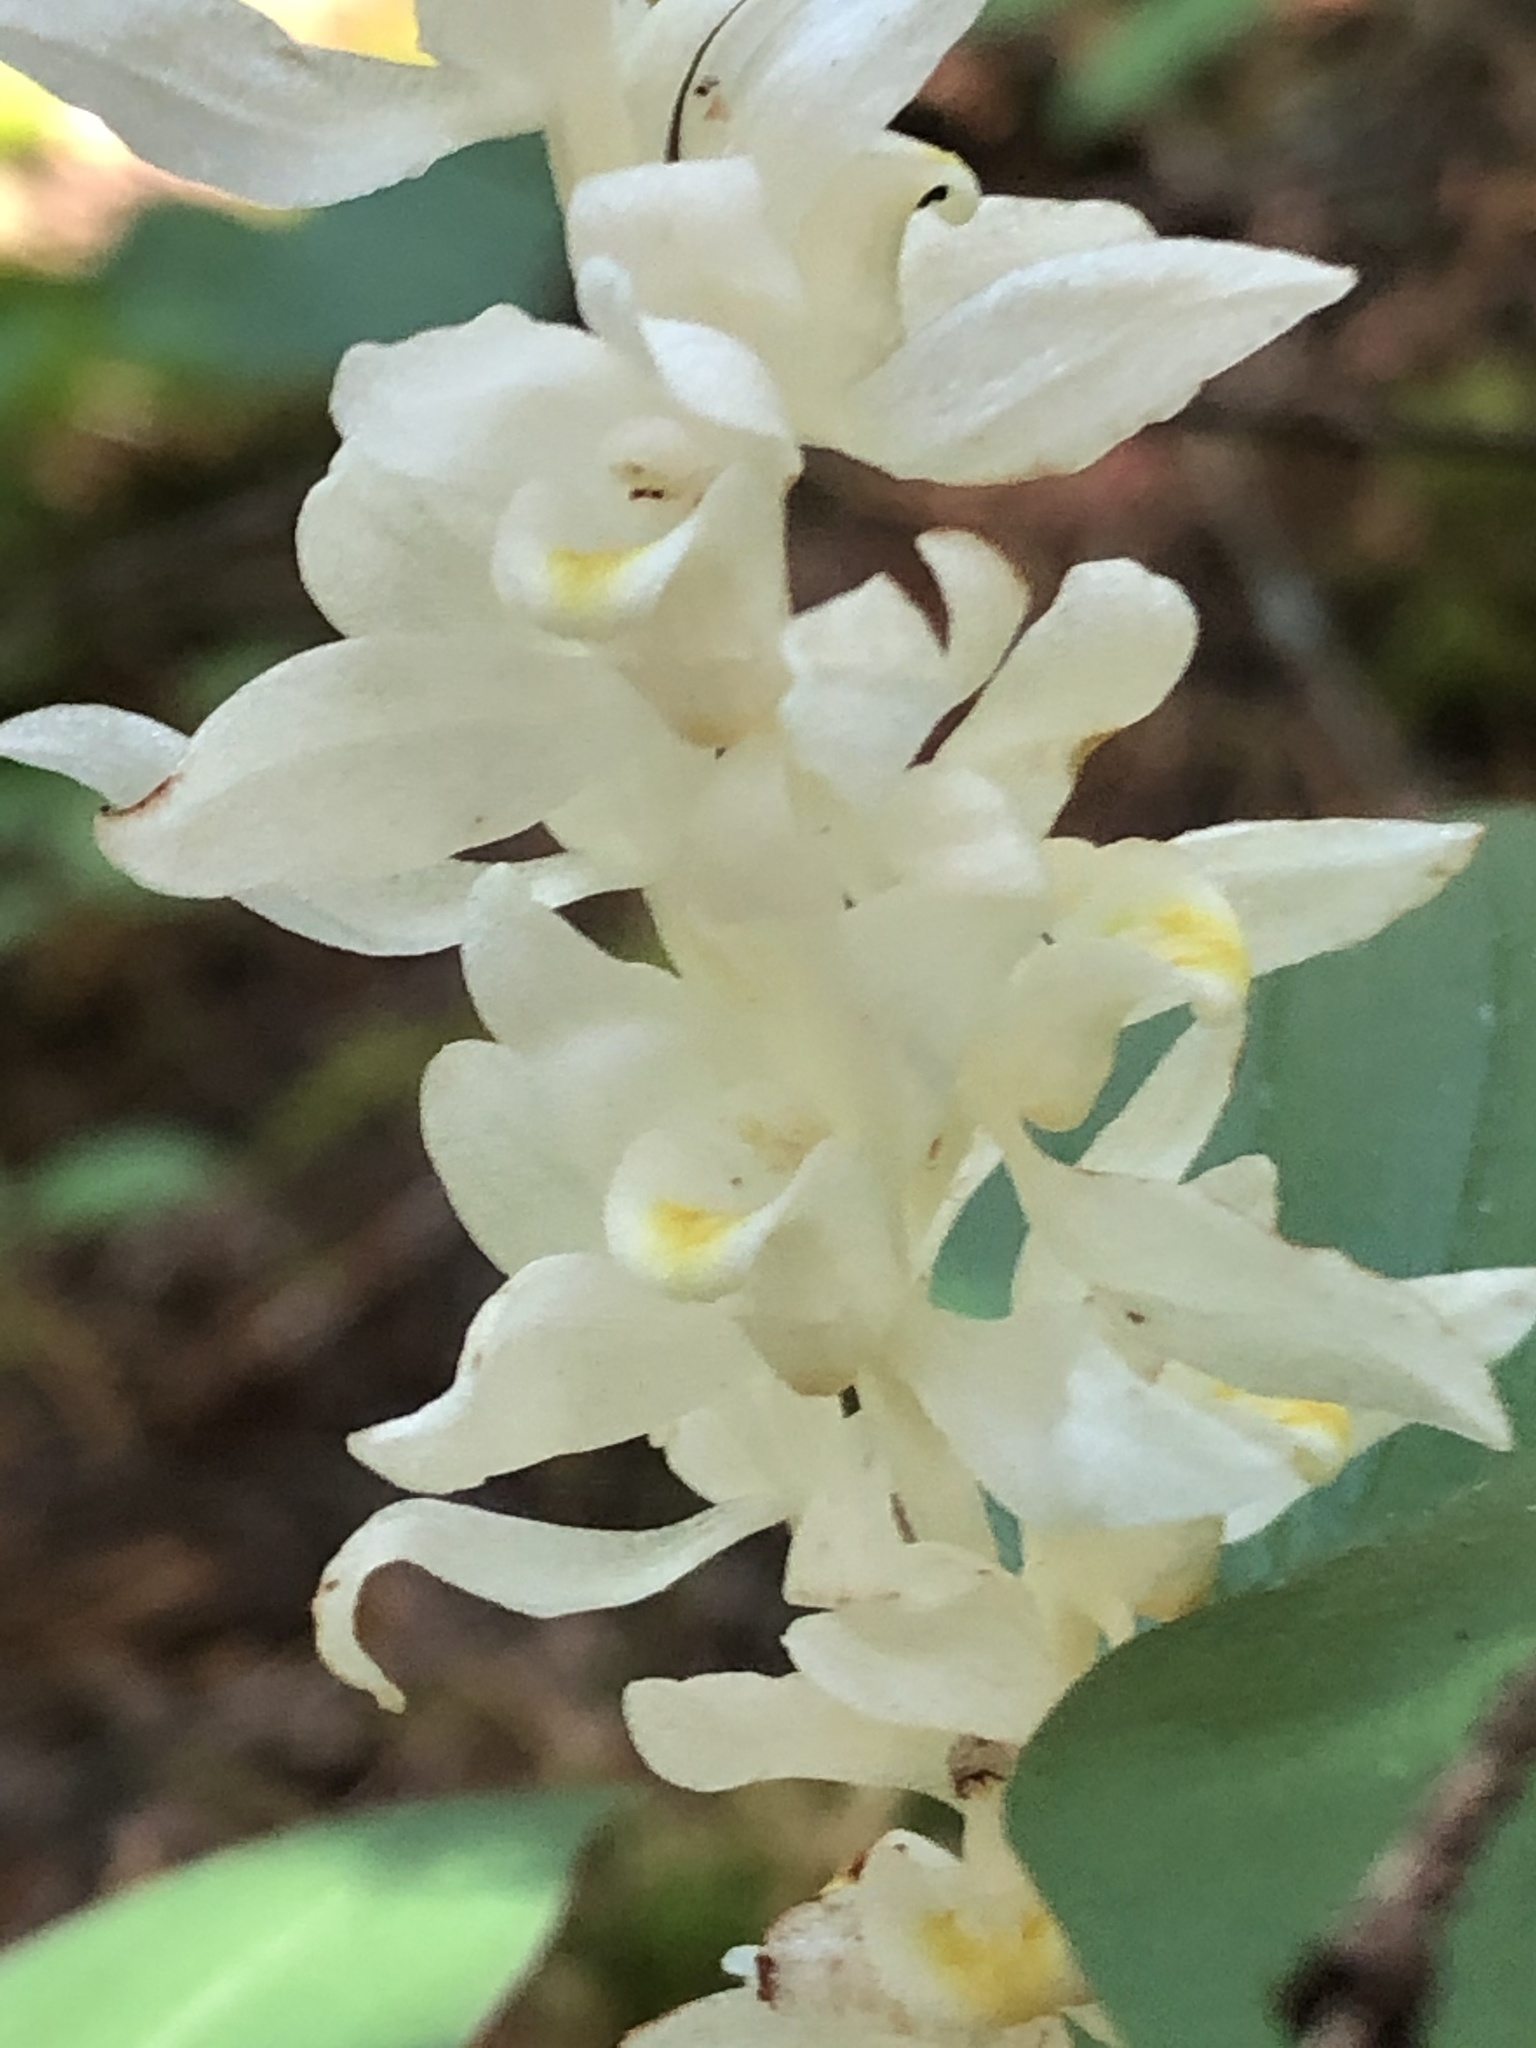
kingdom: Plantae
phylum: Tracheophyta
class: Liliopsida
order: Asparagales
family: Orchidaceae
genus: Cephalanthera
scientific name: Cephalanthera austiniae
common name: Phantom orchid
